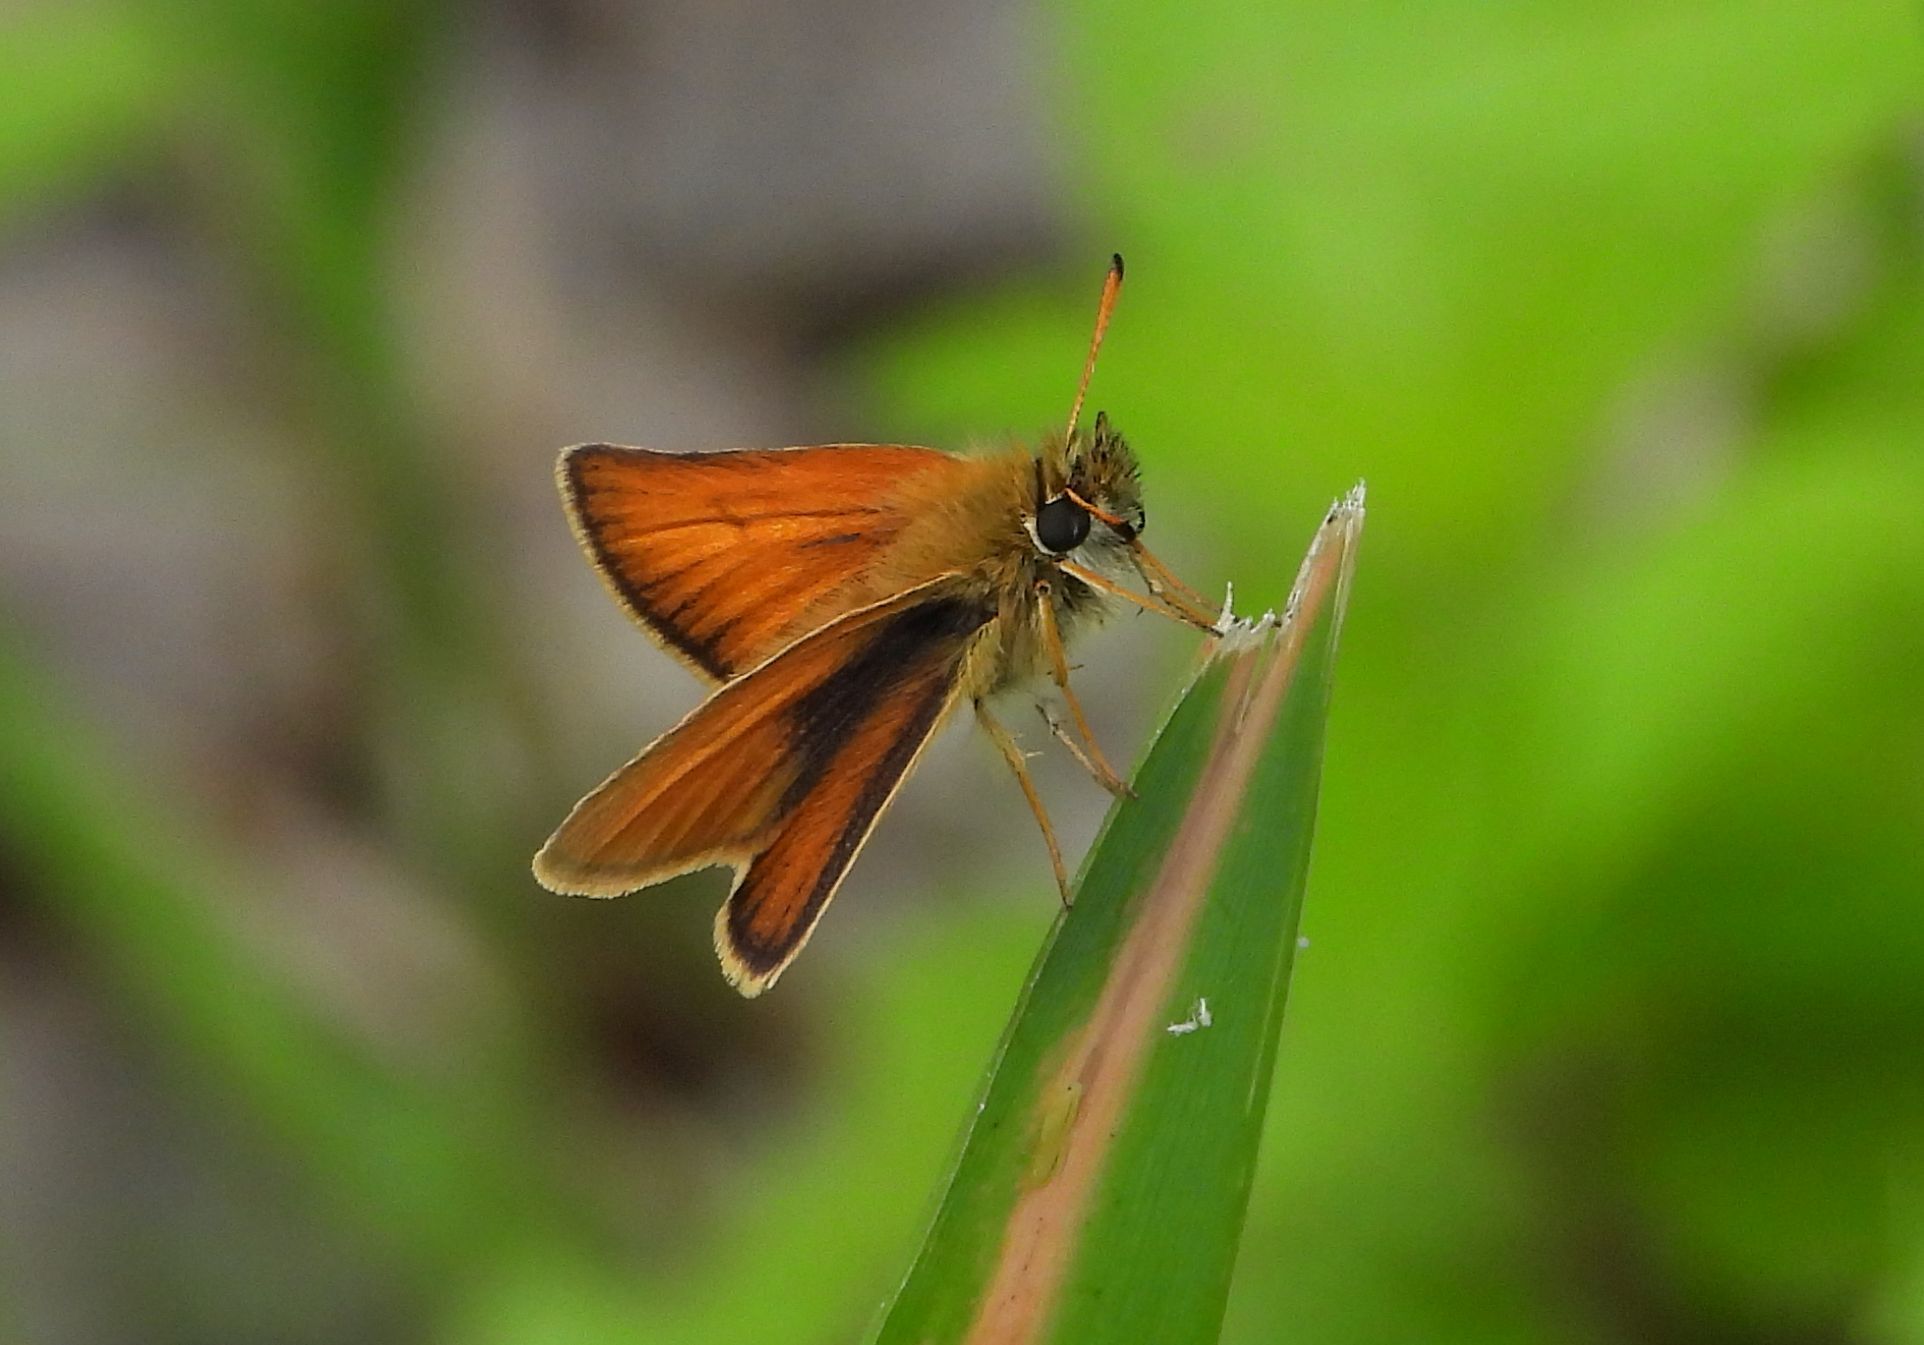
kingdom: Animalia
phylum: Arthropoda
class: Insecta
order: Lepidoptera
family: Hesperiidae
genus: Thymelicus
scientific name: Thymelicus lineola
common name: Essex skipper
